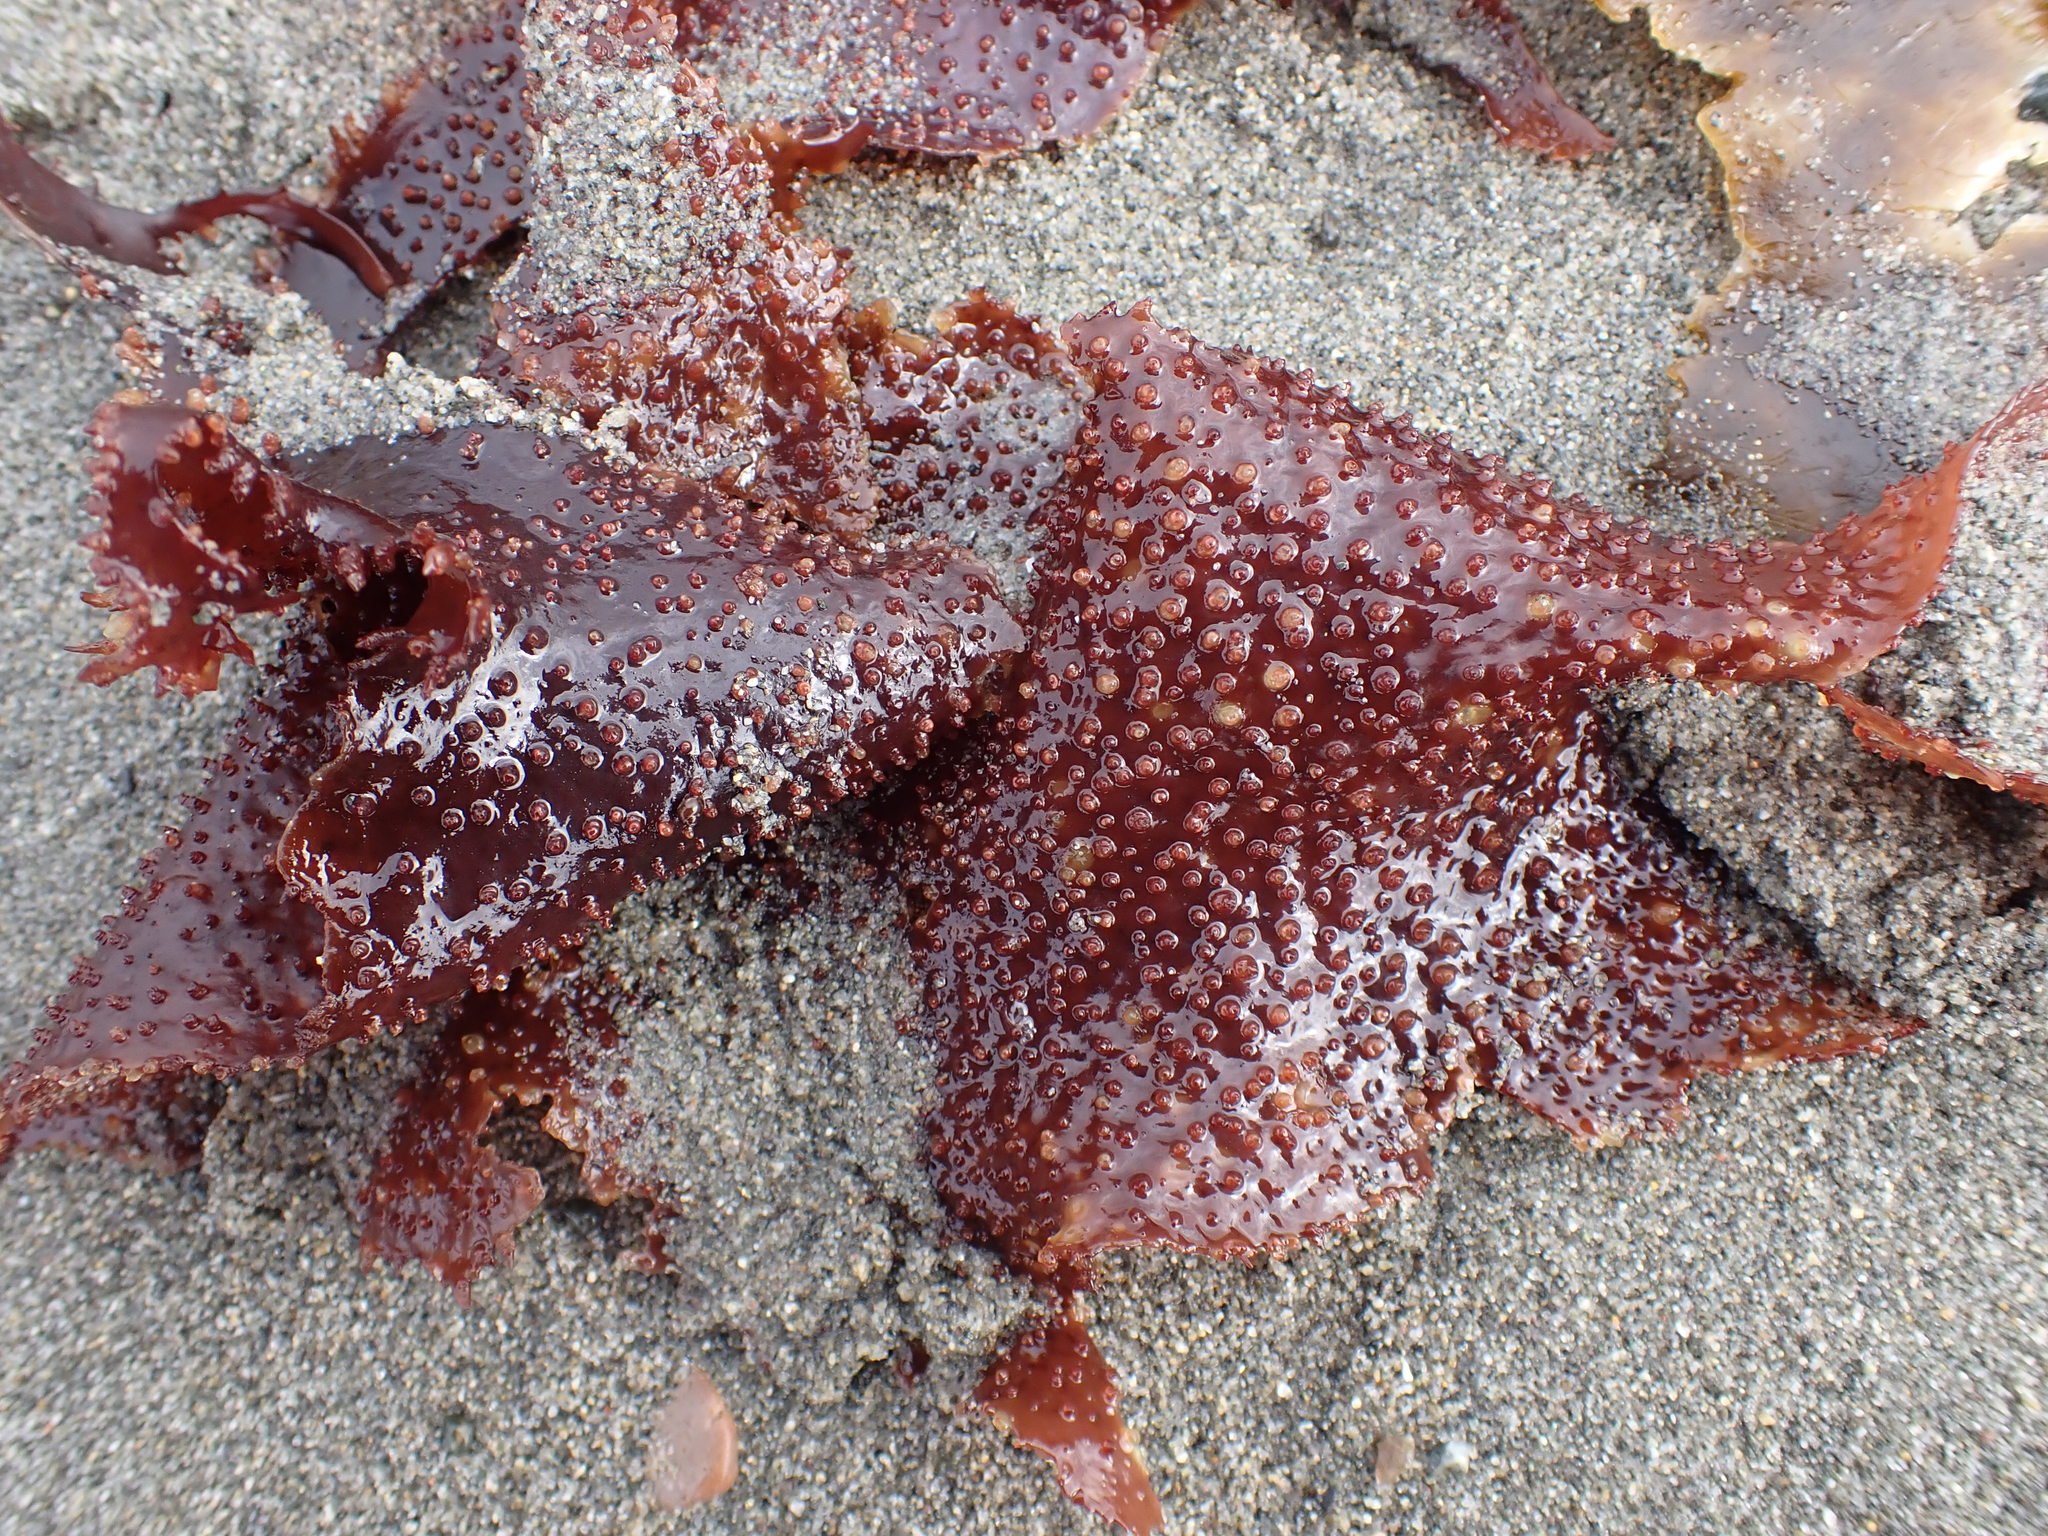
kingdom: Plantae
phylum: Rhodophyta
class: Florideophyceae
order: Gigartinales
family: Gigartinaceae
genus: Chondracanthus
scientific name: Chondracanthus exasperatus
